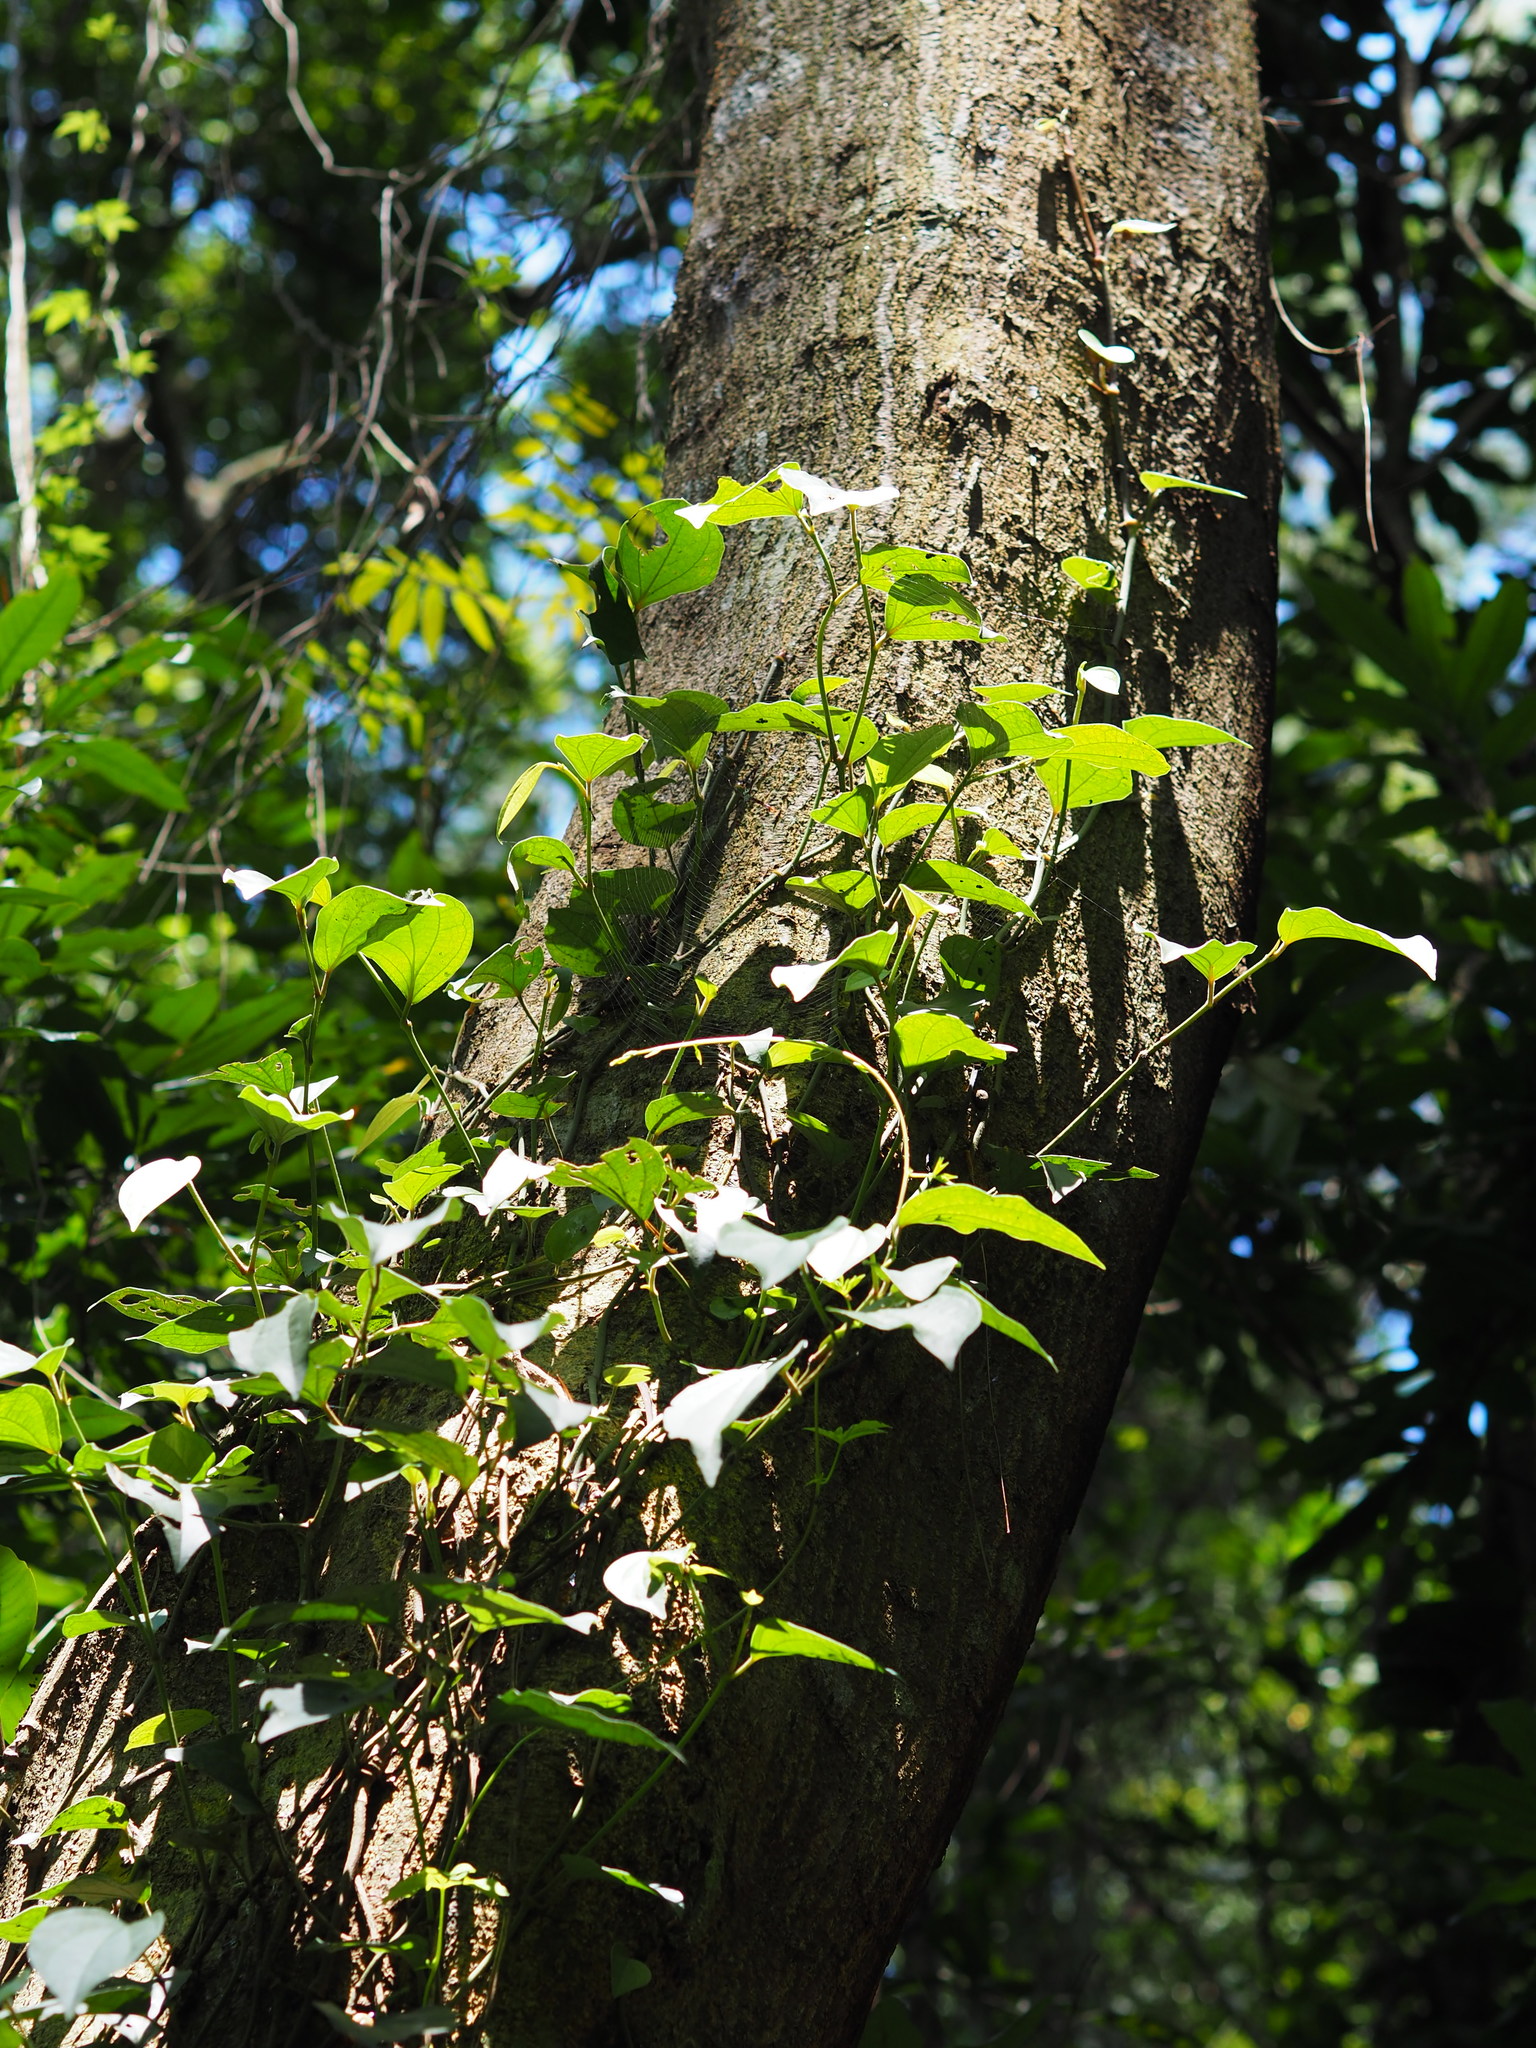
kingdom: Plantae
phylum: Tracheophyta
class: Magnoliopsida
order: Piperales
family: Piperaceae
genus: Piper
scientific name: Piper kadsura
